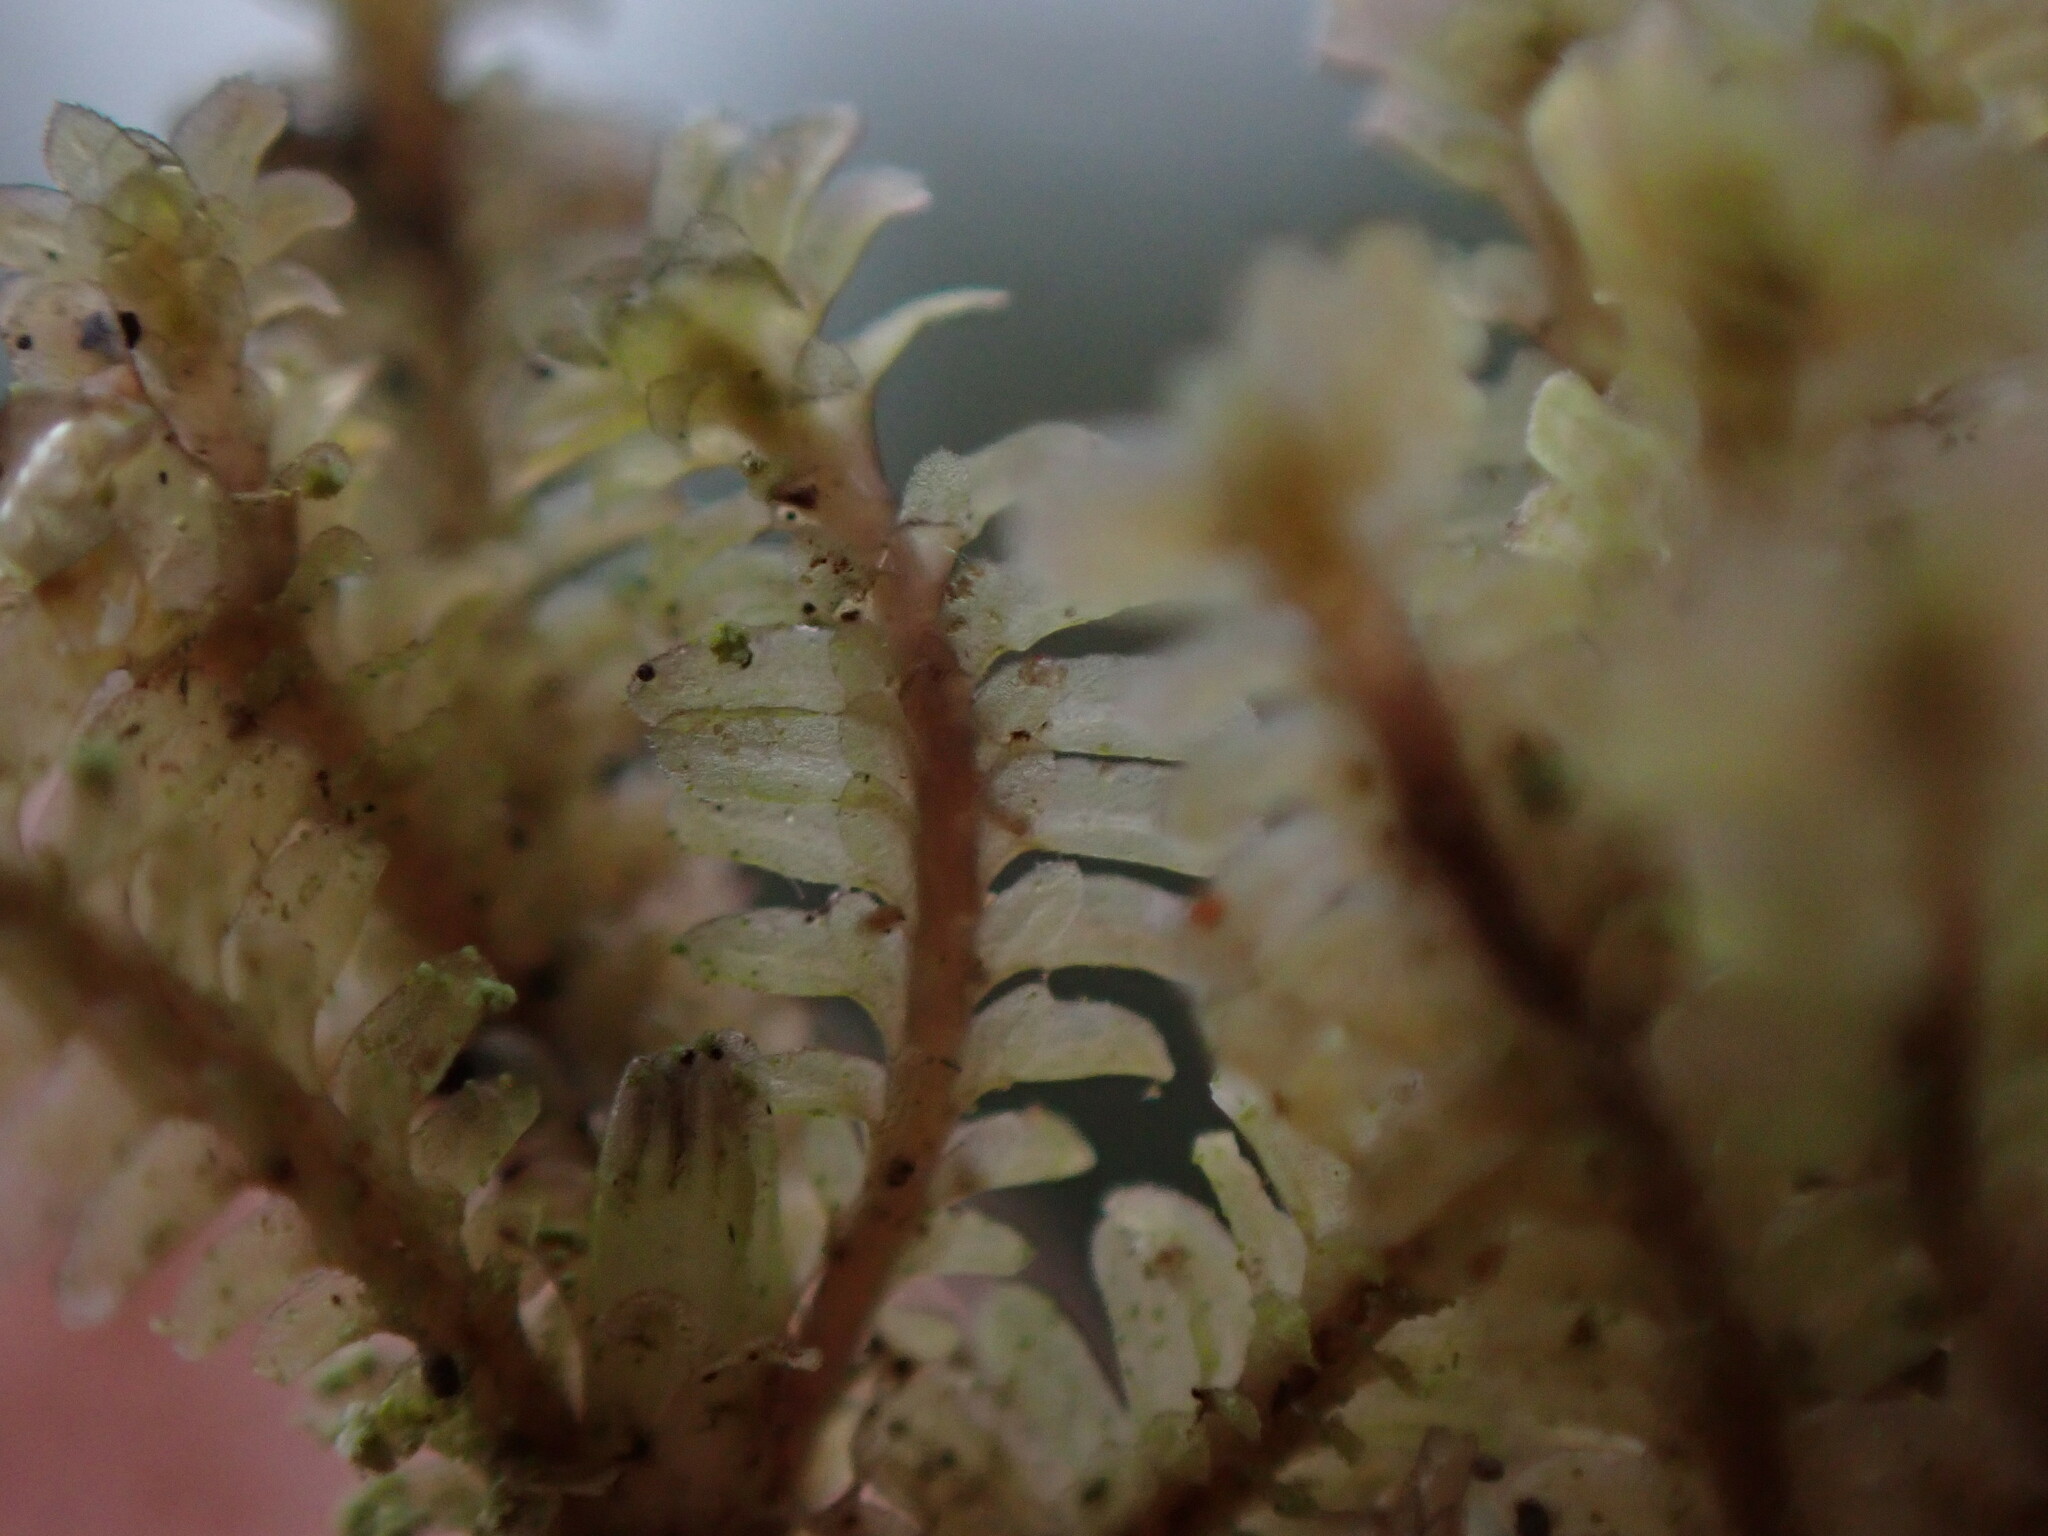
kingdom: Plantae
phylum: Marchantiophyta
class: Jungermanniopsida
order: Jungermanniales
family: Scapaniaceae
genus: Diplophyllum
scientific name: Diplophyllum albicans
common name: White earwort
